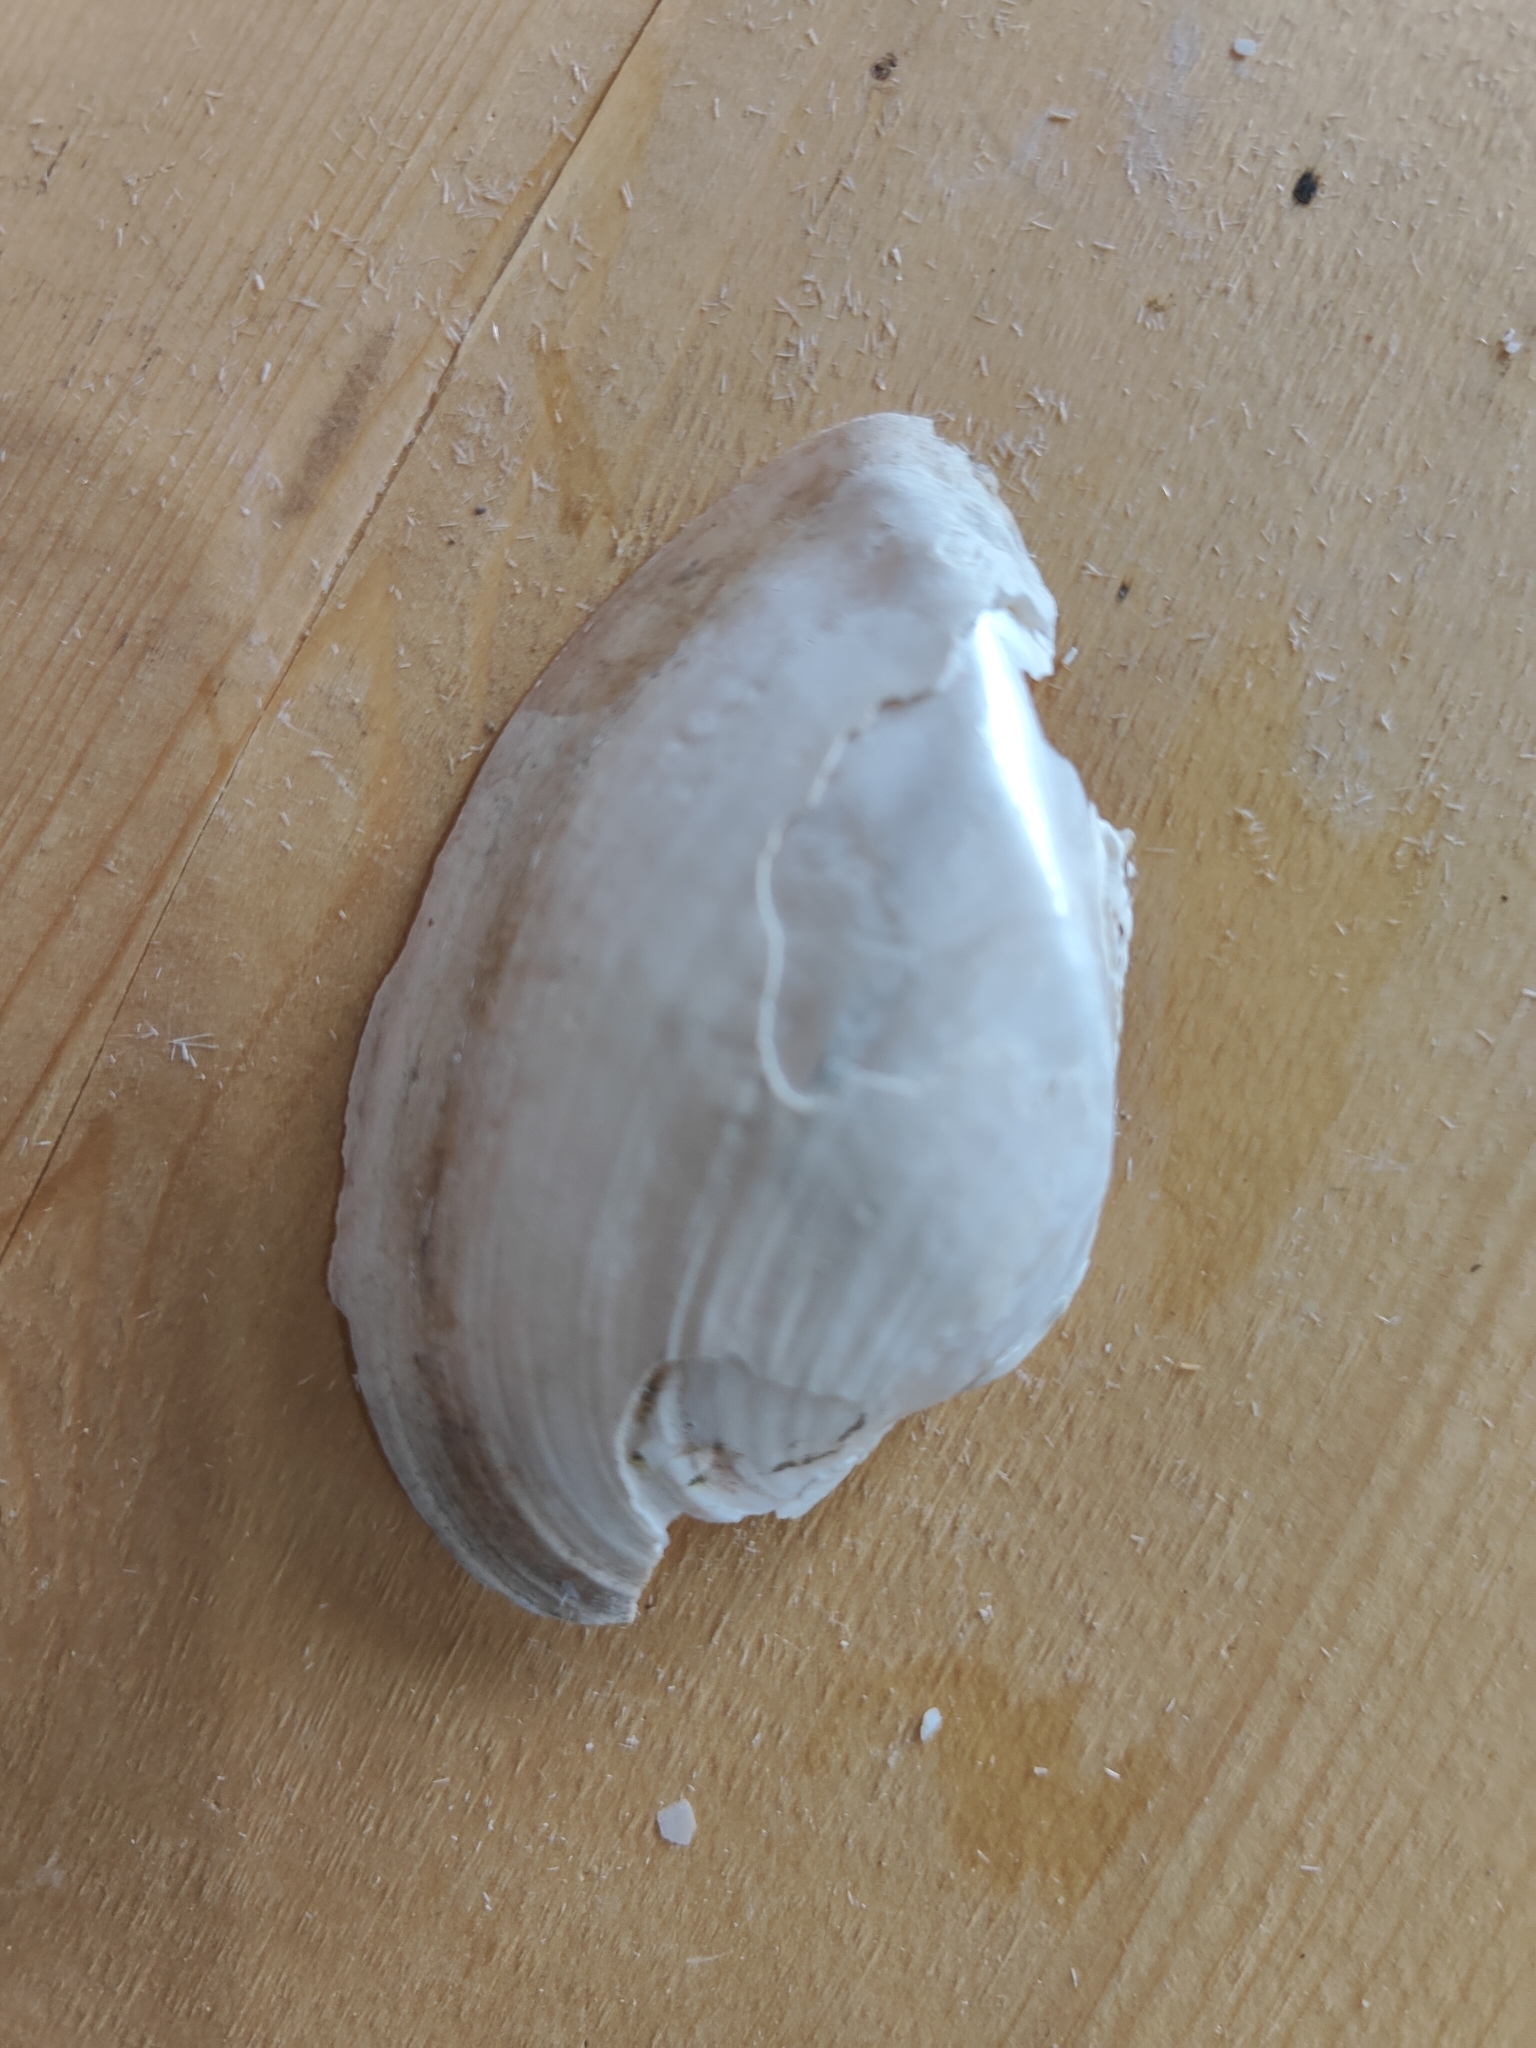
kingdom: Animalia
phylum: Mollusca
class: Bivalvia
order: Unionida
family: Unionidae
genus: Alasmidonta
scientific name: Alasmidonta marginata
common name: Elktoe
